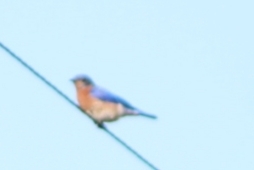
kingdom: Animalia
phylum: Chordata
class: Aves
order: Passeriformes
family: Turdidae
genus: Sialia
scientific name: Sialia sialis
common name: Eastern bluebird
